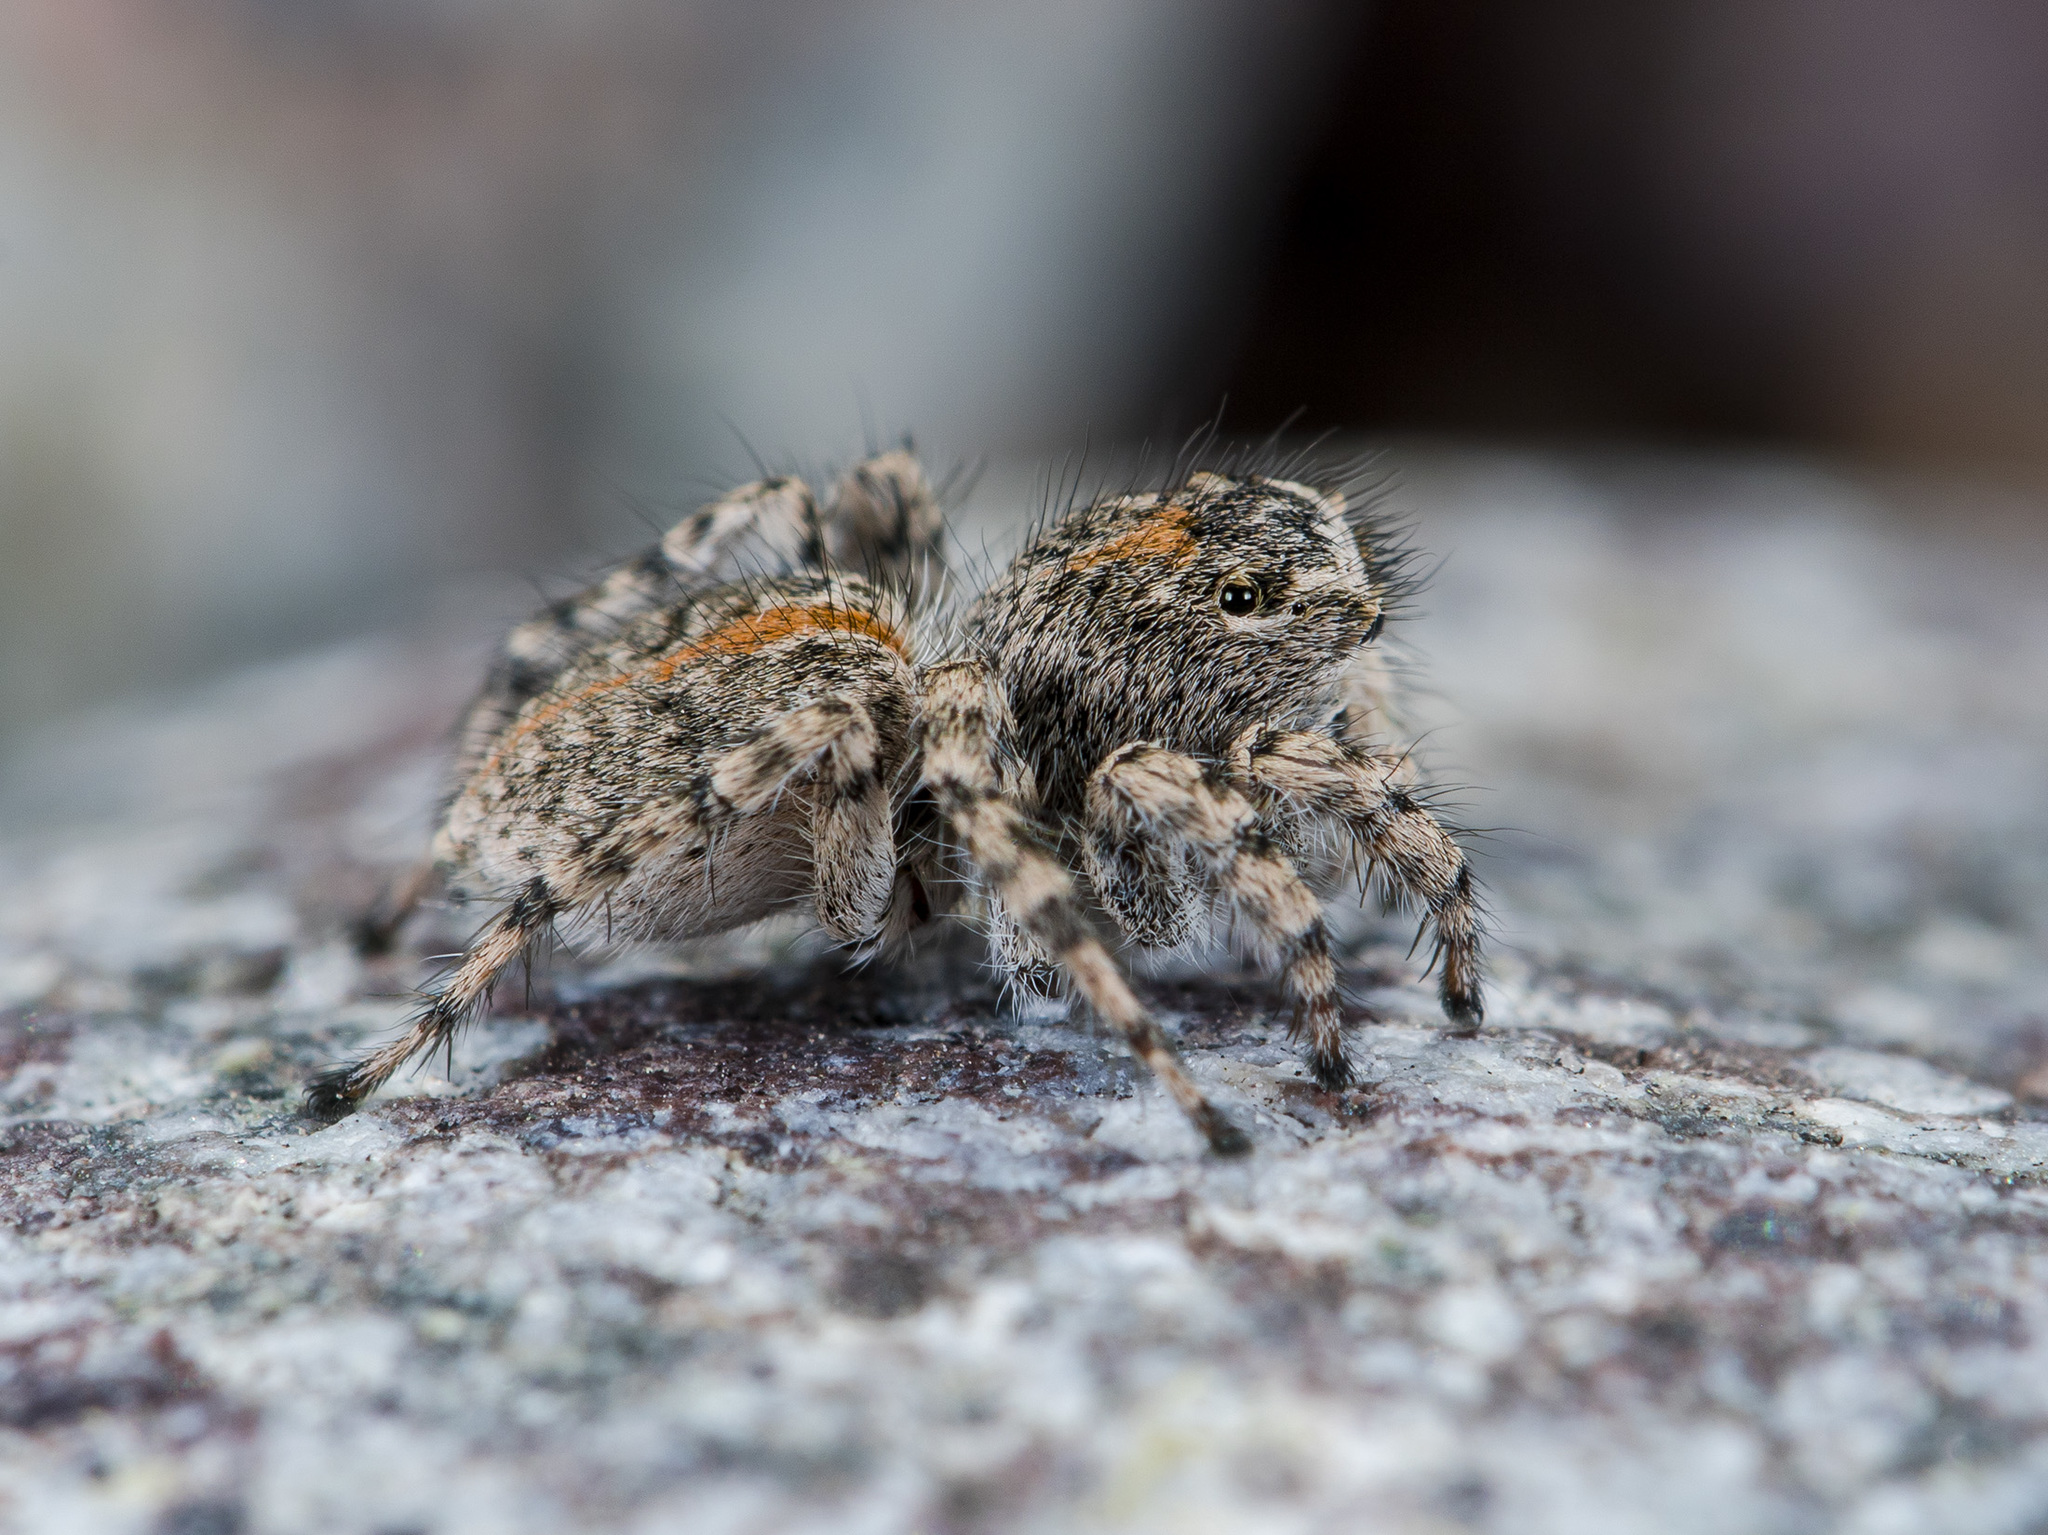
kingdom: Animalia
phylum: Arthropoda
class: Arachnida
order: Araneae
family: Salticidae
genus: Aelurillus
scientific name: Aelurillus dubatolovi
